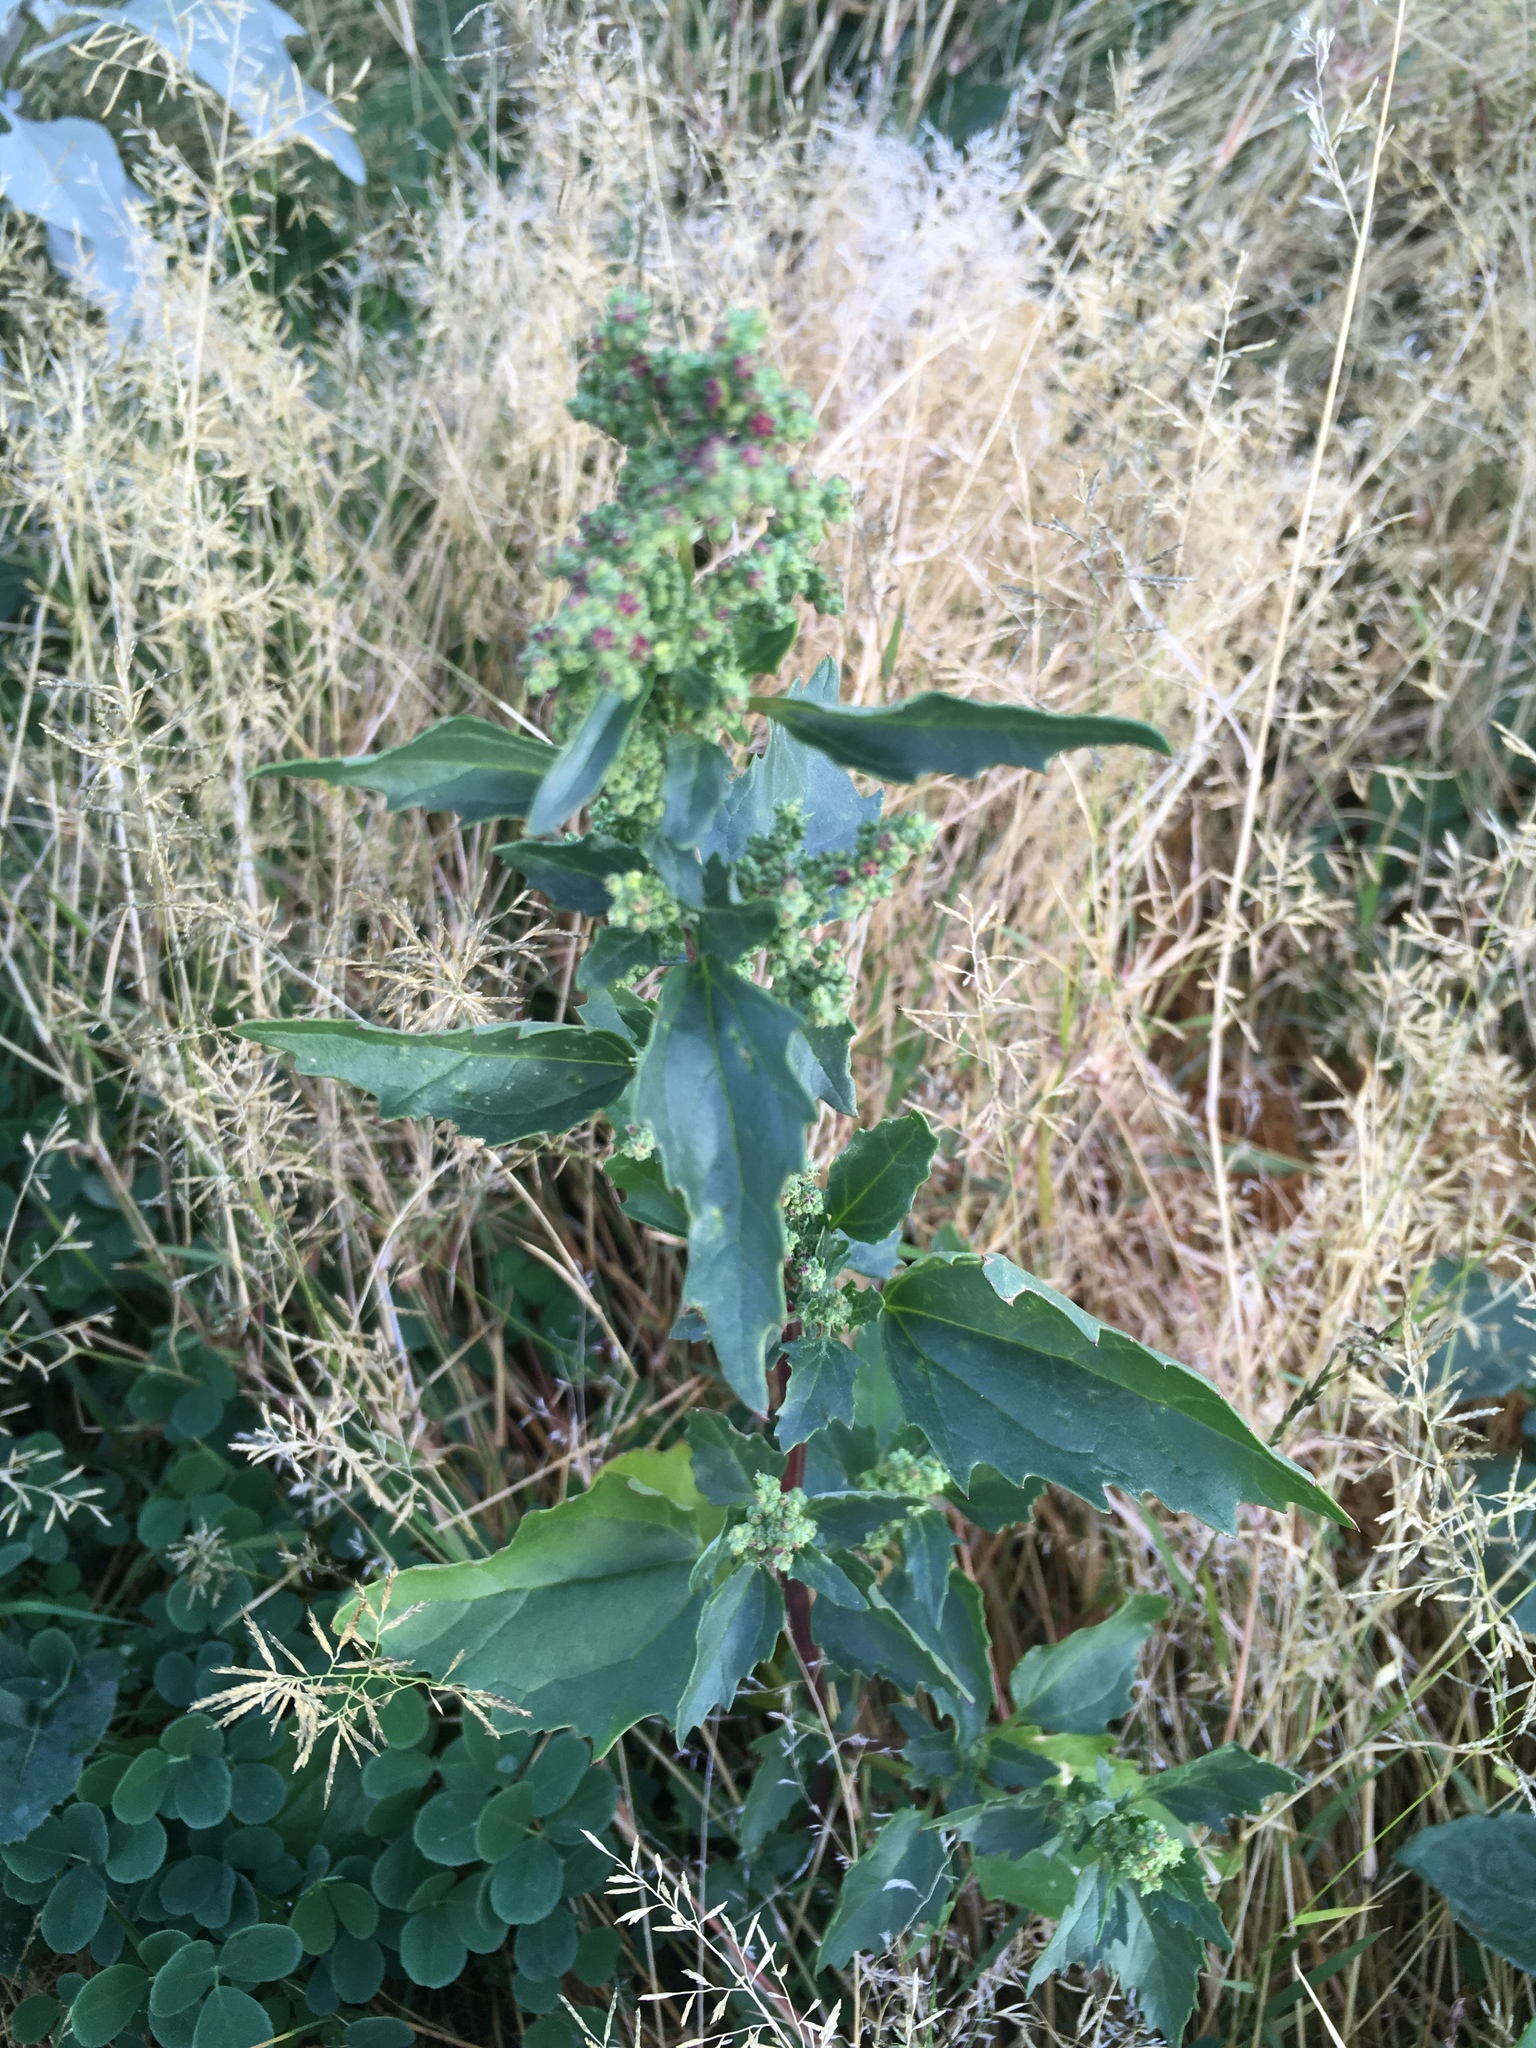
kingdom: Plantae
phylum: Tracheophyta
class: Magnoliopsida
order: Caryophyllales
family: Amaranthaceae
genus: Chenopodiastrum
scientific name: Chenopodiastrum murale
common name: Sowbane
